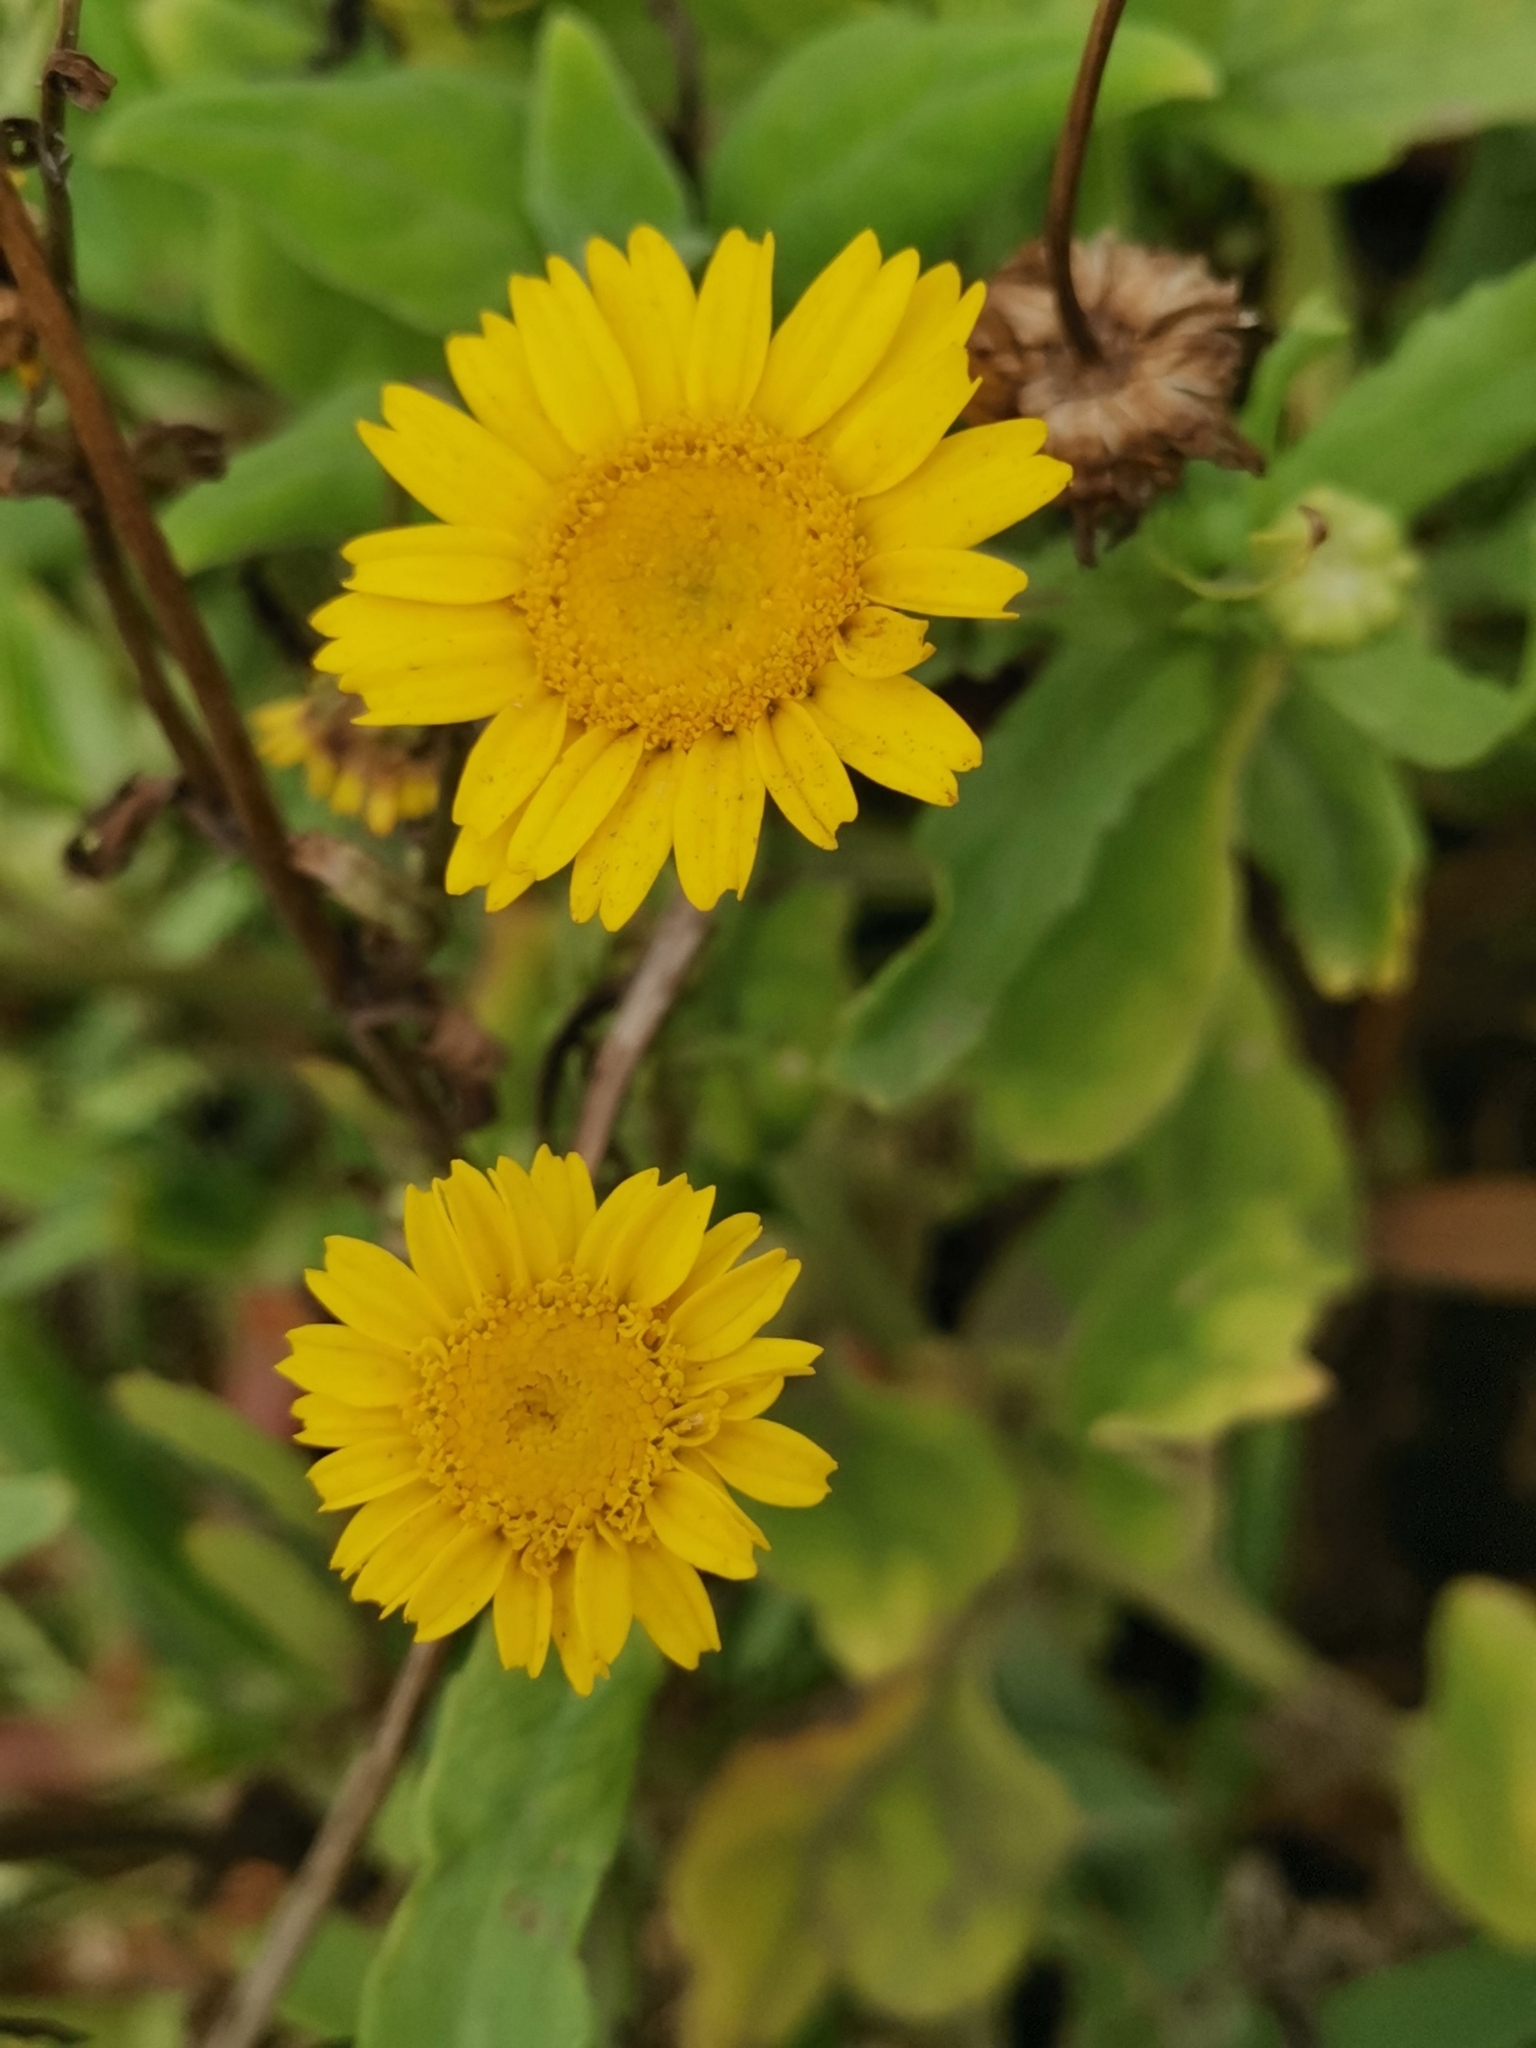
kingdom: Plantae
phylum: Tracheophyta
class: Magnoliopsida
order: Asterales
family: Asteraceae
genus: Coleostephus
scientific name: Coleostephus myconis
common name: Mediterranean marigold
